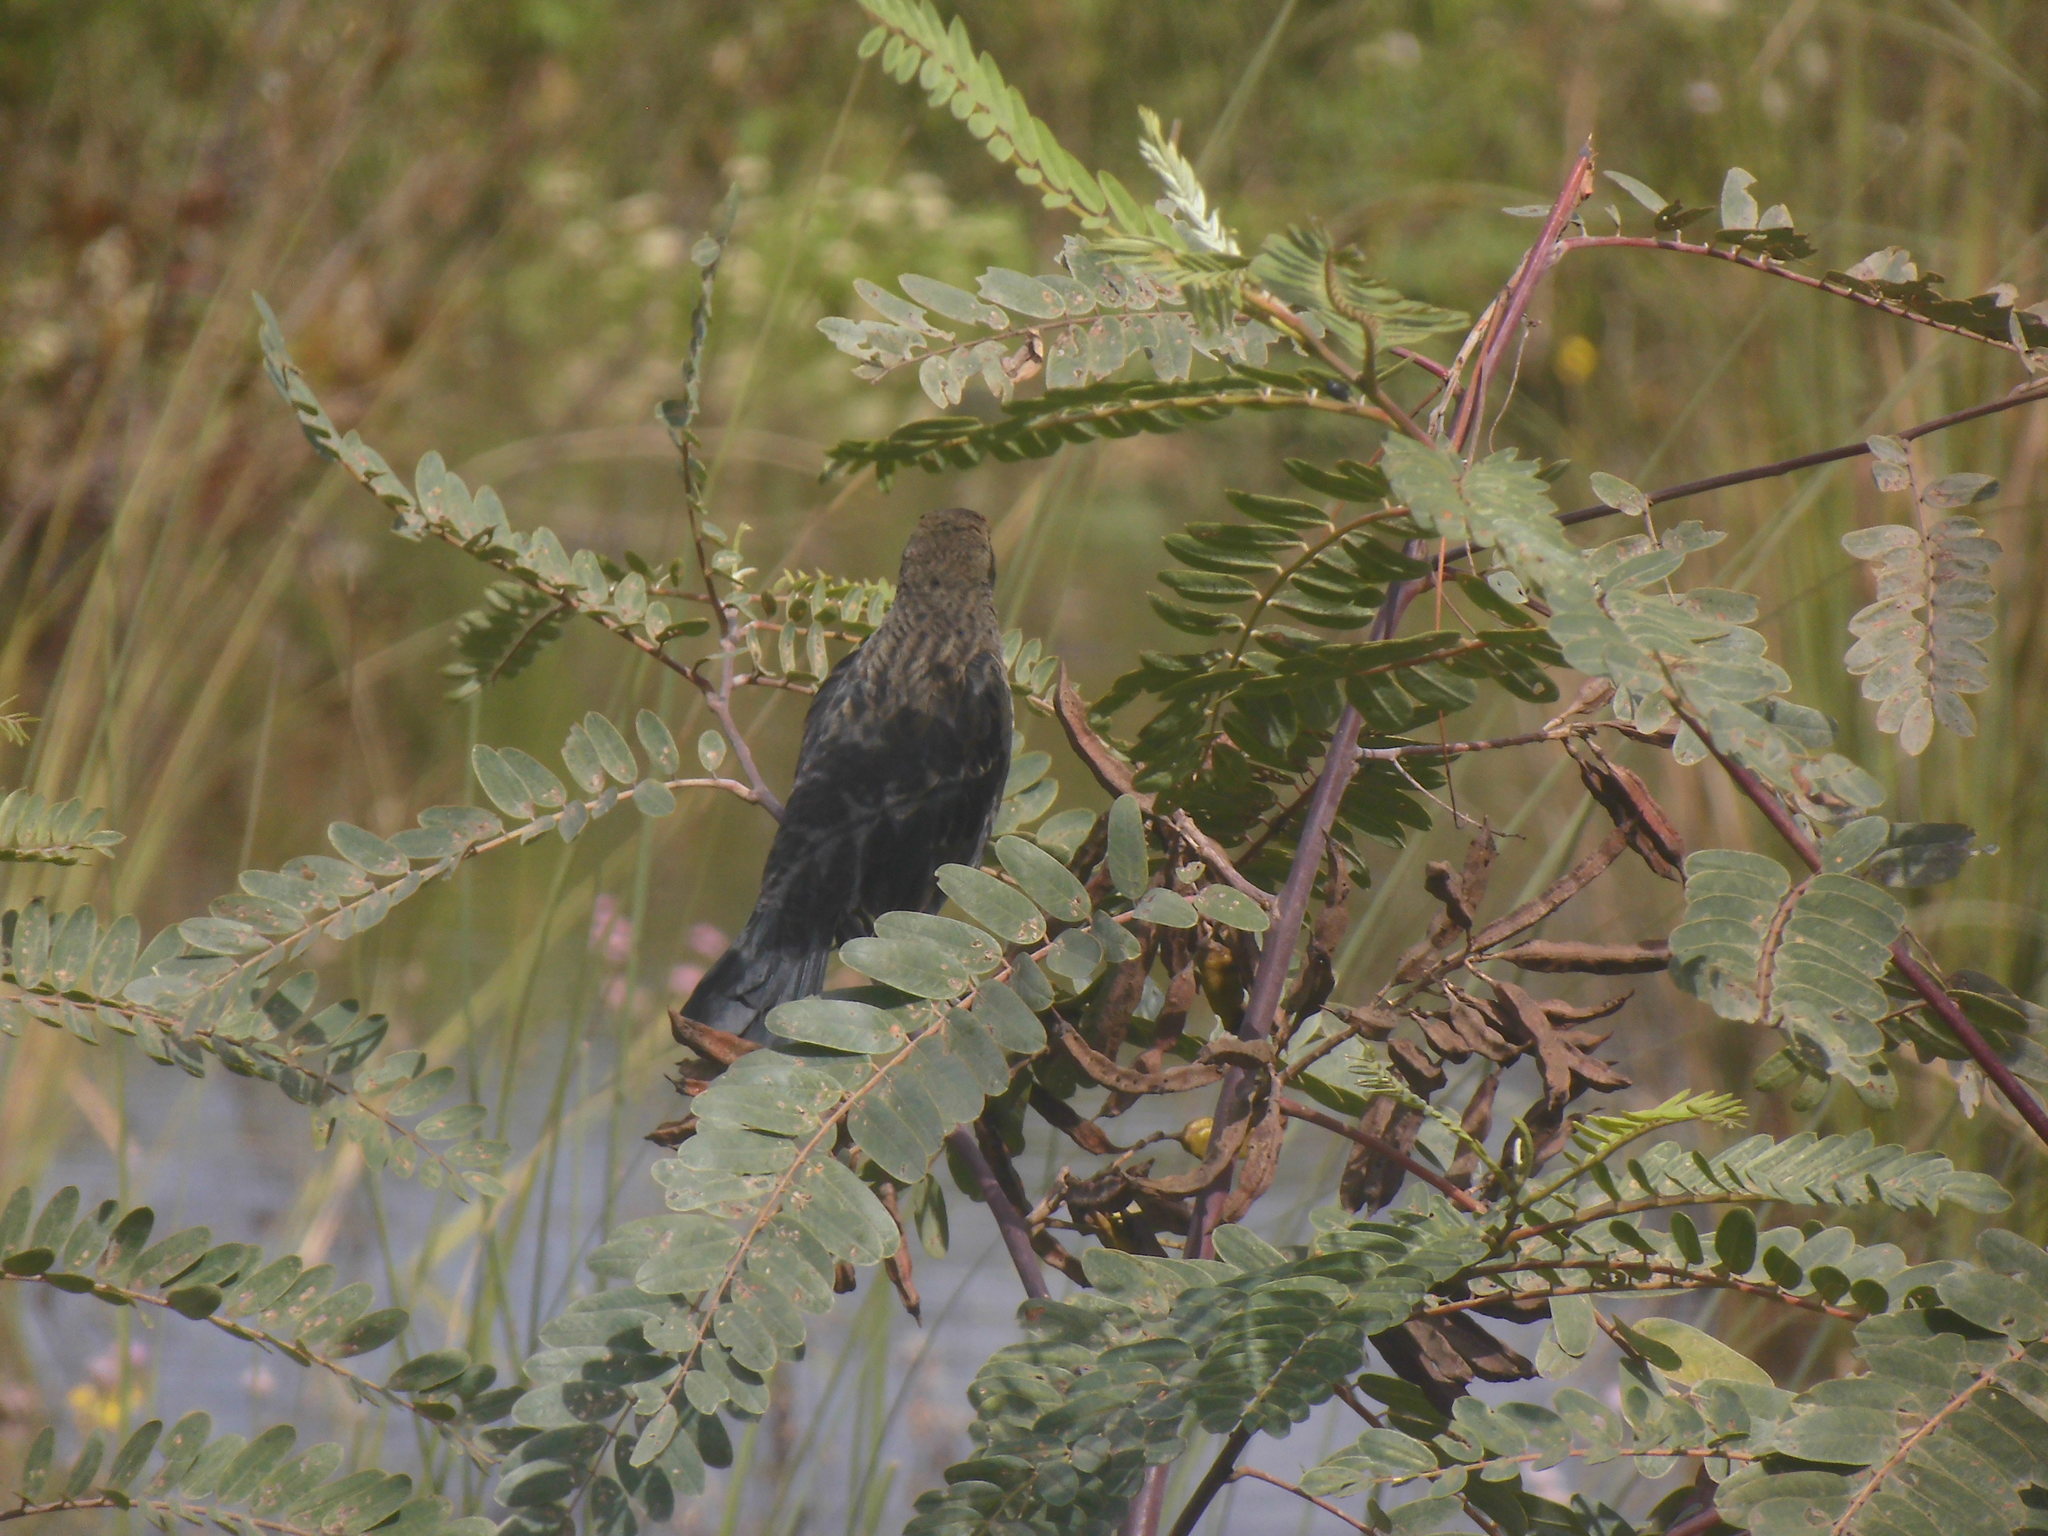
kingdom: Animalia
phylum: Chordata
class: Aves
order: Passeriformes
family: Icteridae
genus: Chrysomus
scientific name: Chrysomus ruficapillus
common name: Chestnut-capped blackbird
